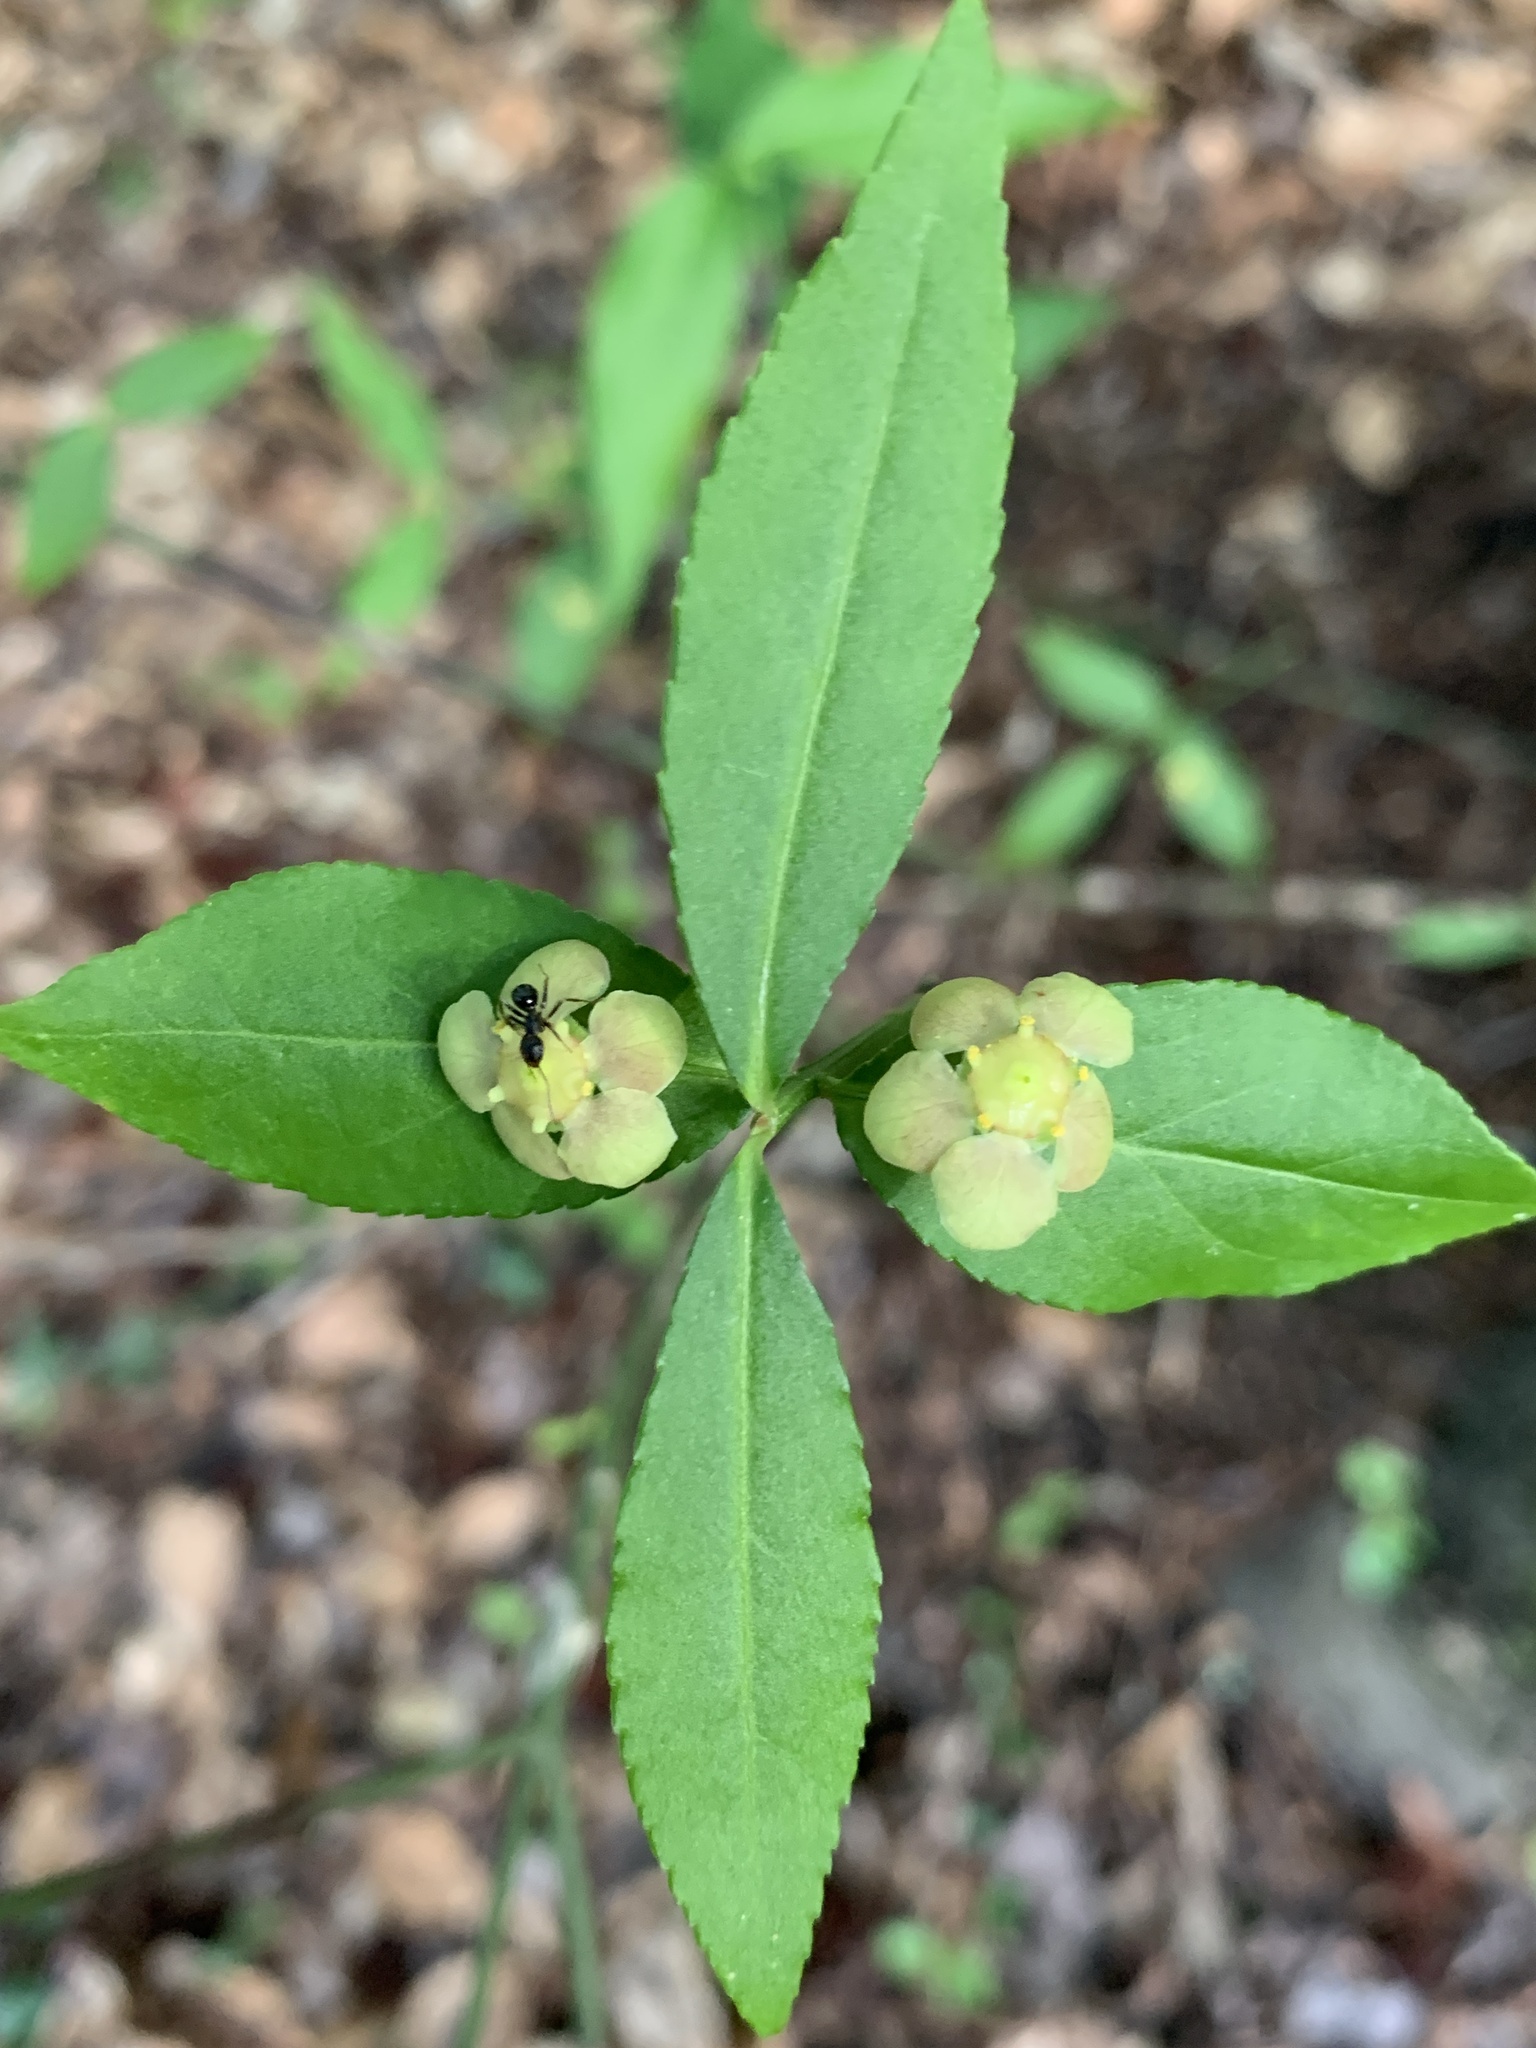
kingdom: Plantae
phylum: Tracheophyta
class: Magnoliopsida
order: Celastrales
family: Celastraceae
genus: Euonymus
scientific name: Euonymus americanus
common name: Bursting-heart
